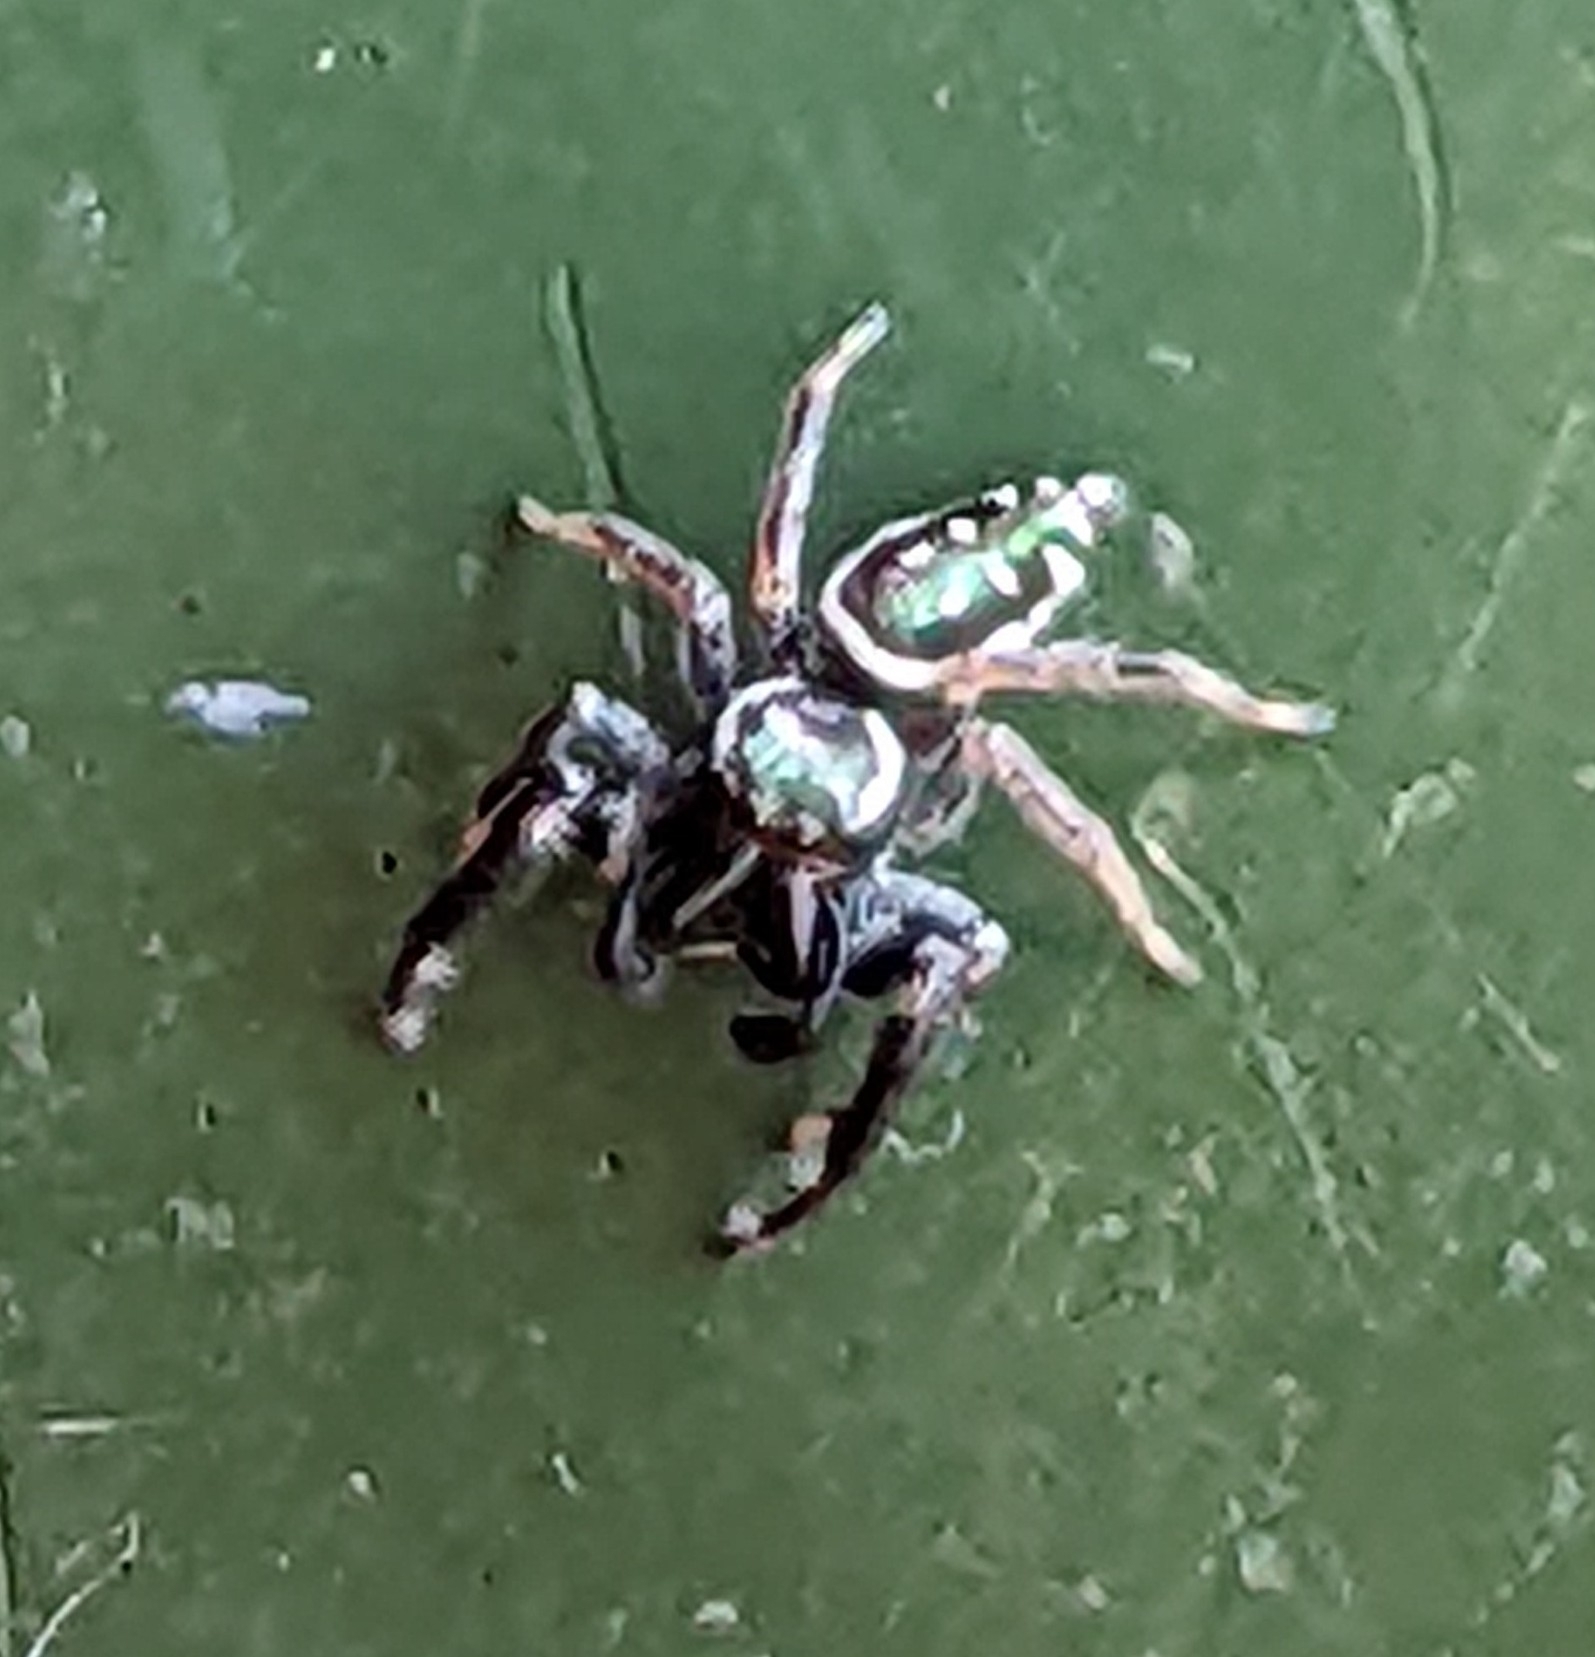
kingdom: Animalia
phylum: Arthropoda
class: Arachnida
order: Araneae
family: Salticidae
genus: Paraphidippus
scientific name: Paraphidippus aurantius
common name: Jumping spiders
